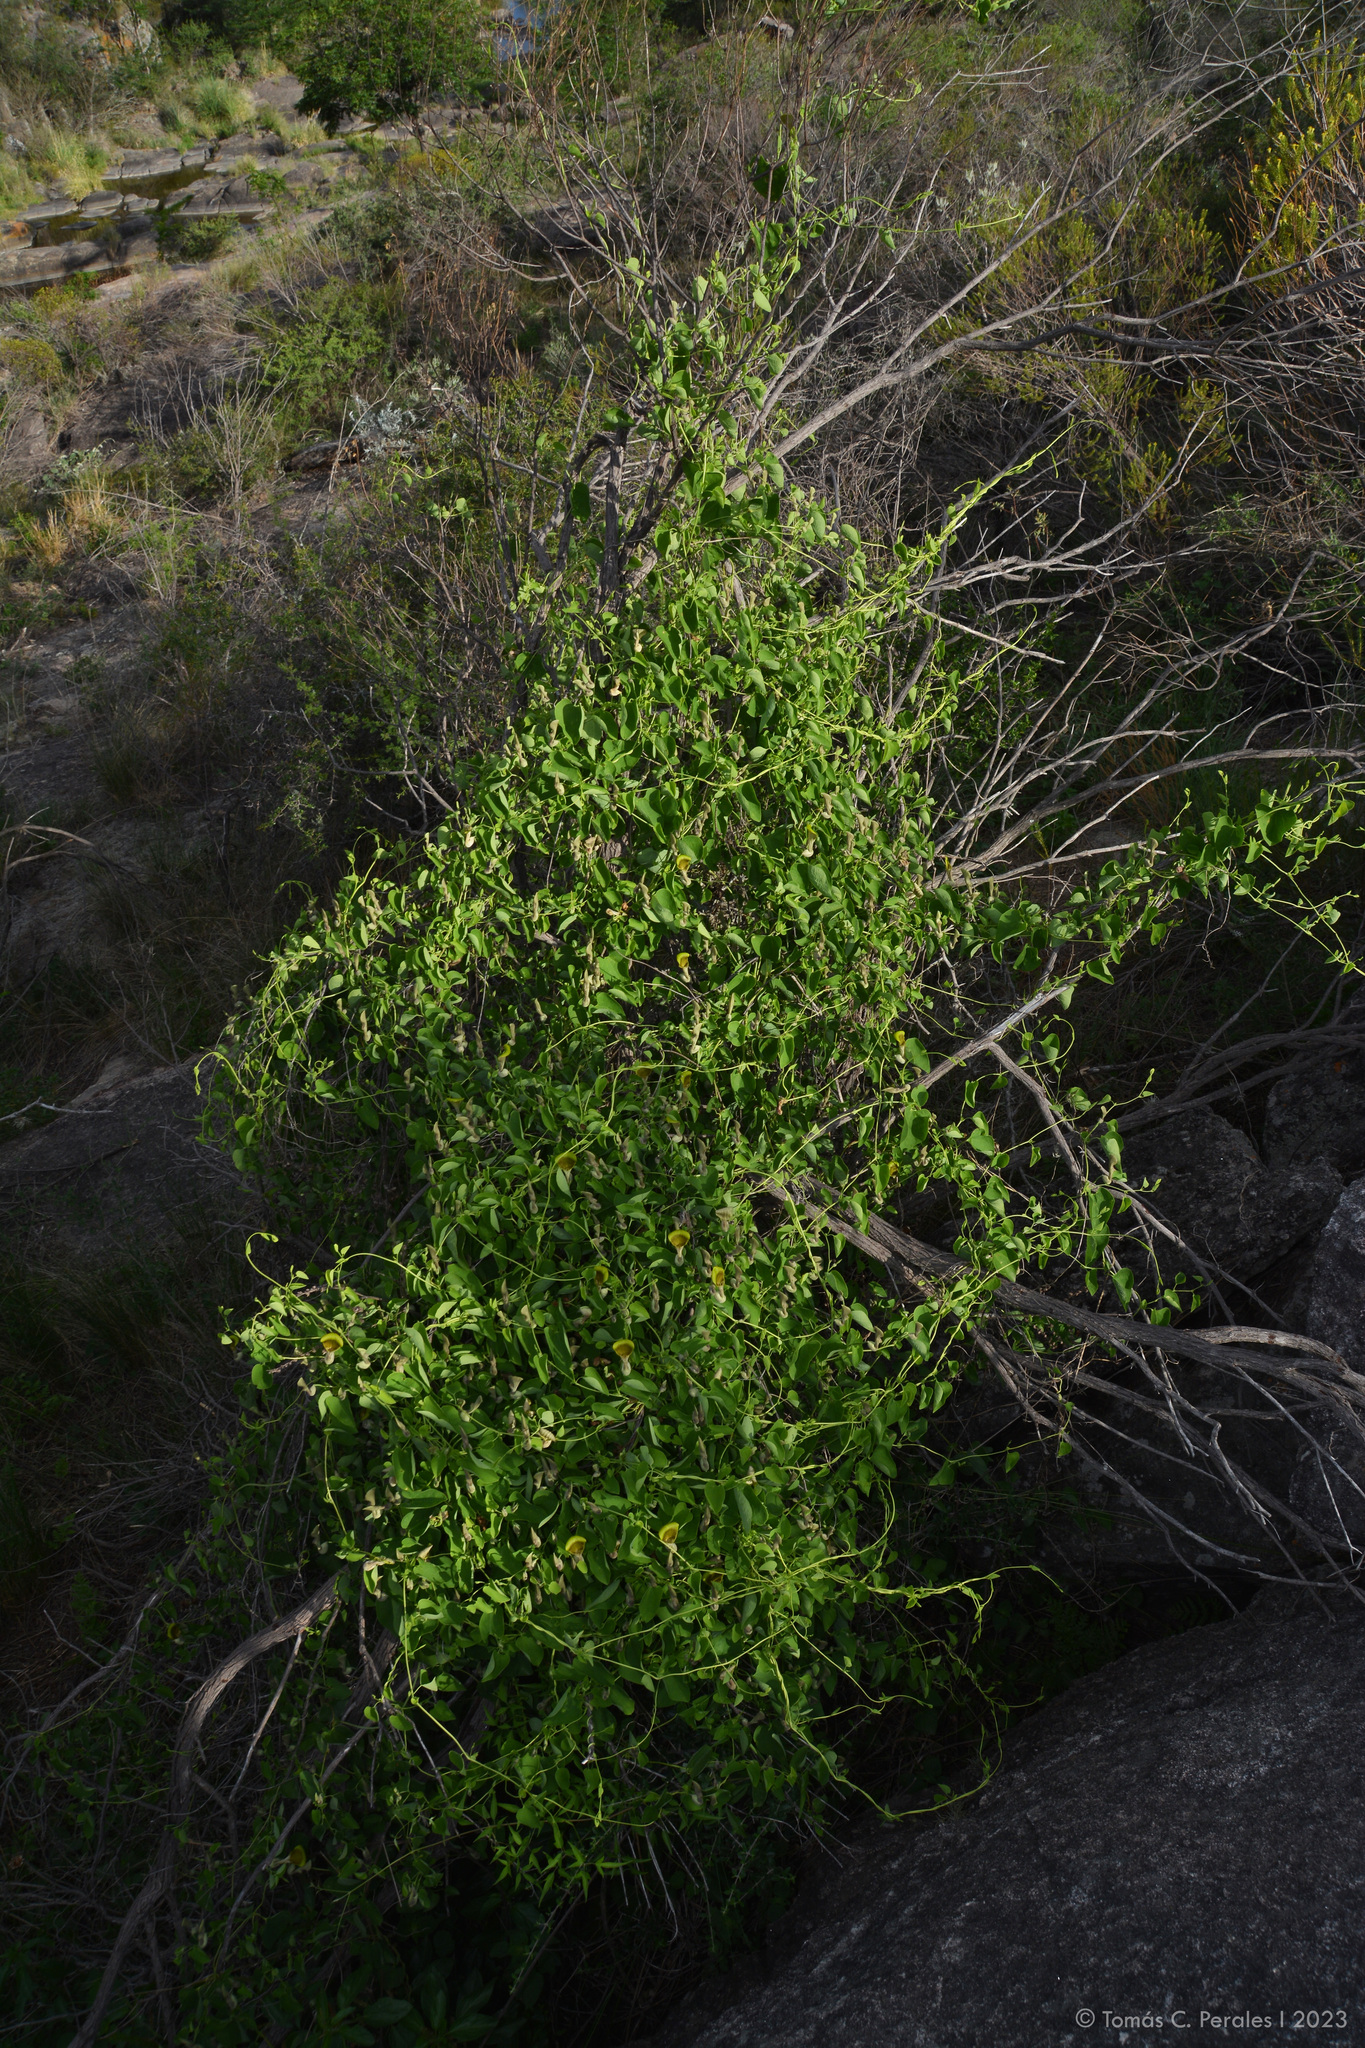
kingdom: Plantae
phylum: Tracheophyta
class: Magnoliopsida
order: Piperales
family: Aristolochiaceae
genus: Aristolochia
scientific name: Aristolochia argentina
